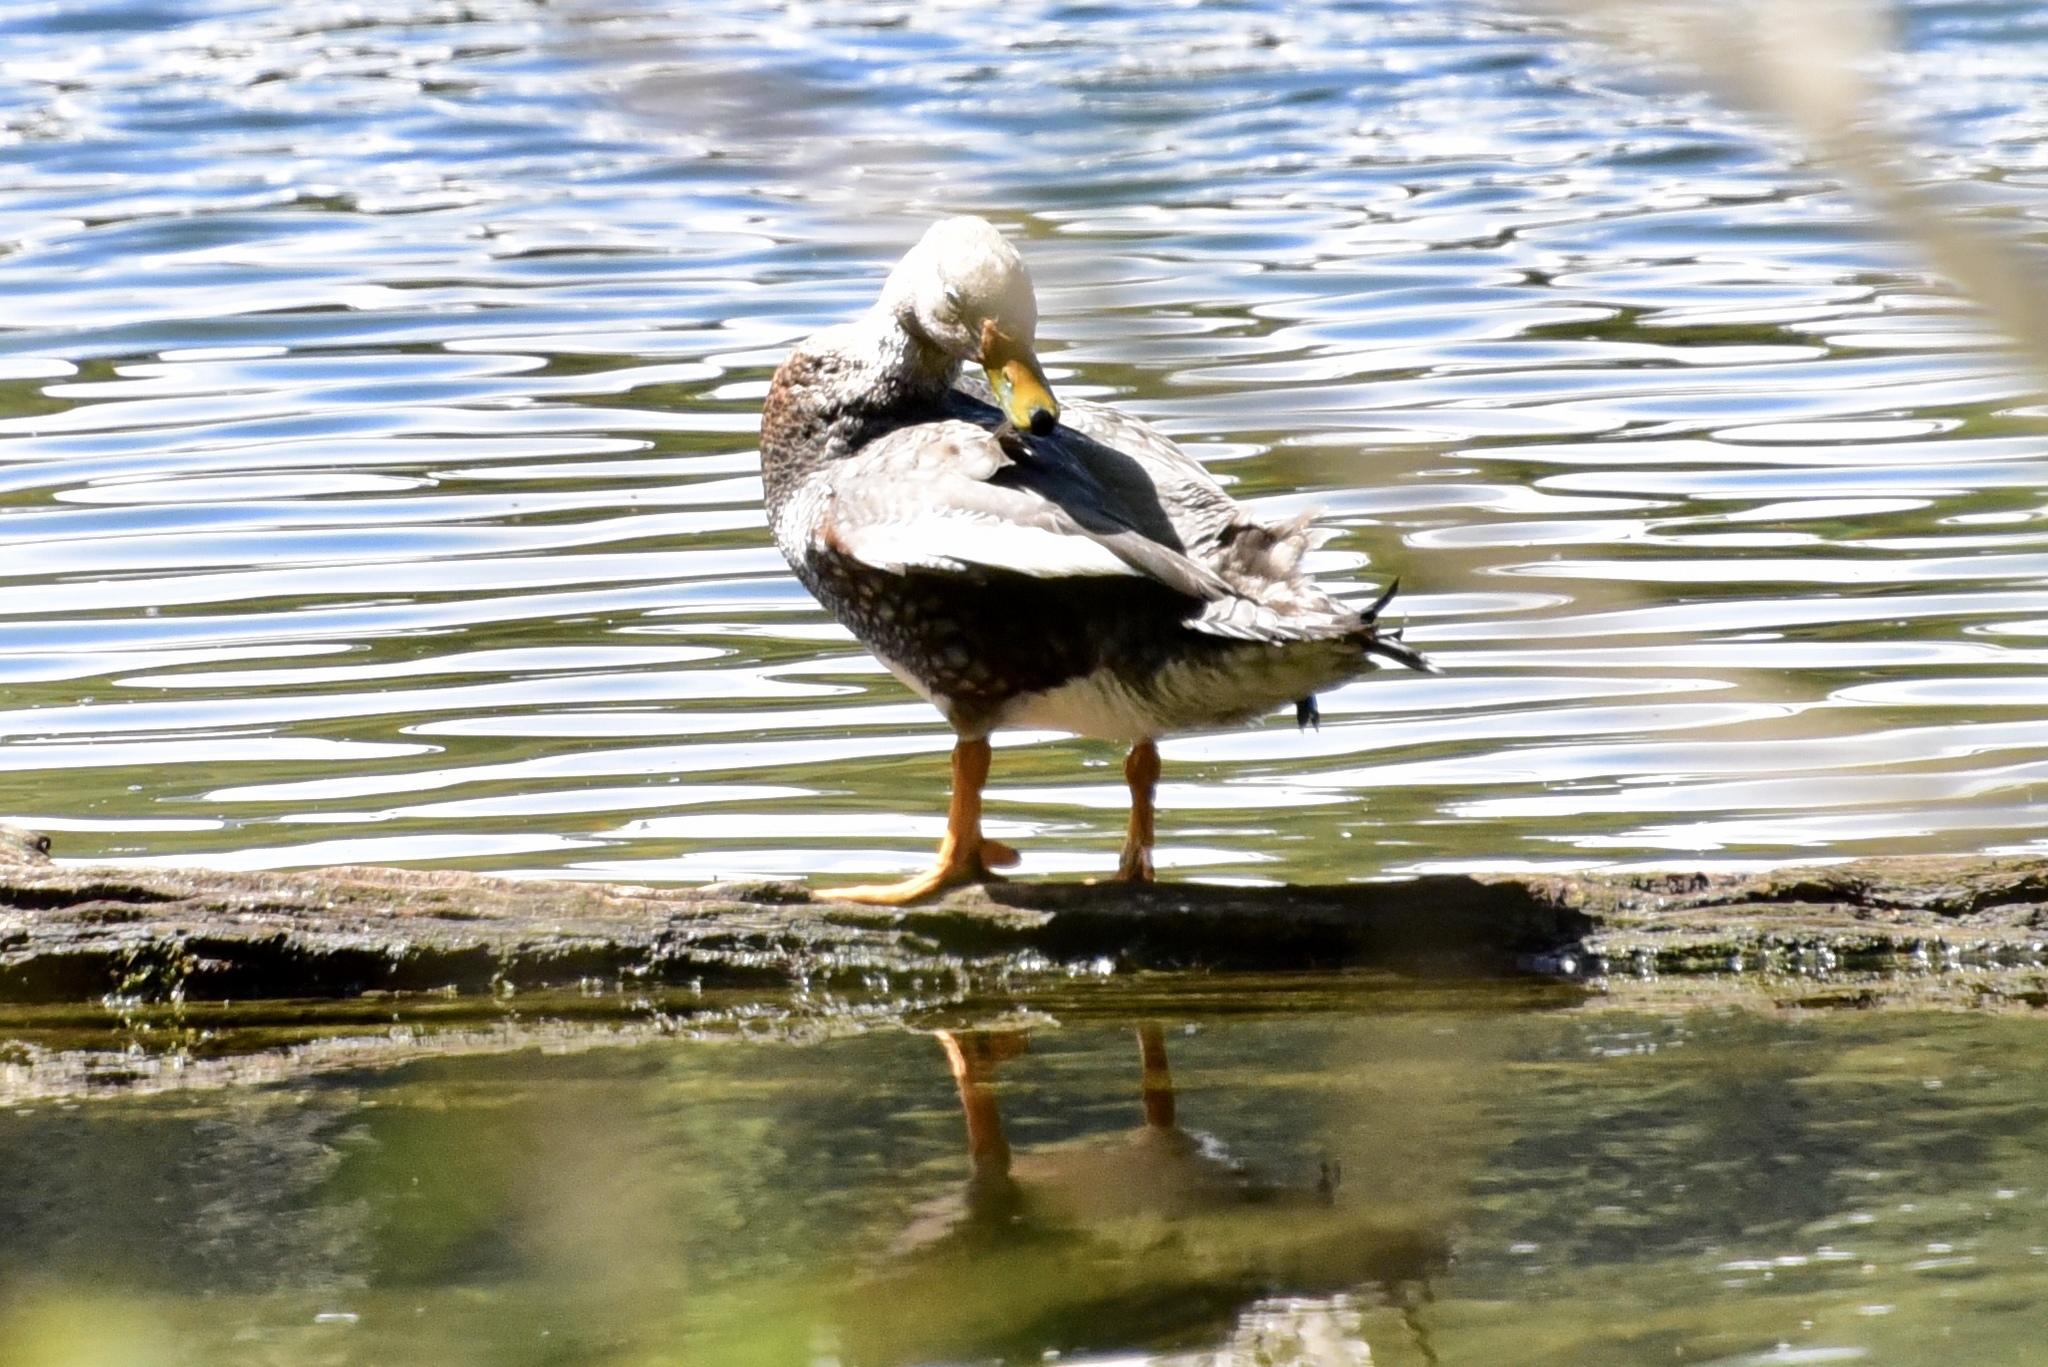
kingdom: Animalia
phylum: Chordata
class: Aves
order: Anseriformes
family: Anatidae
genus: Tachyeres
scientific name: Tachyeres patachonicus
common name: Flying steamer duck
